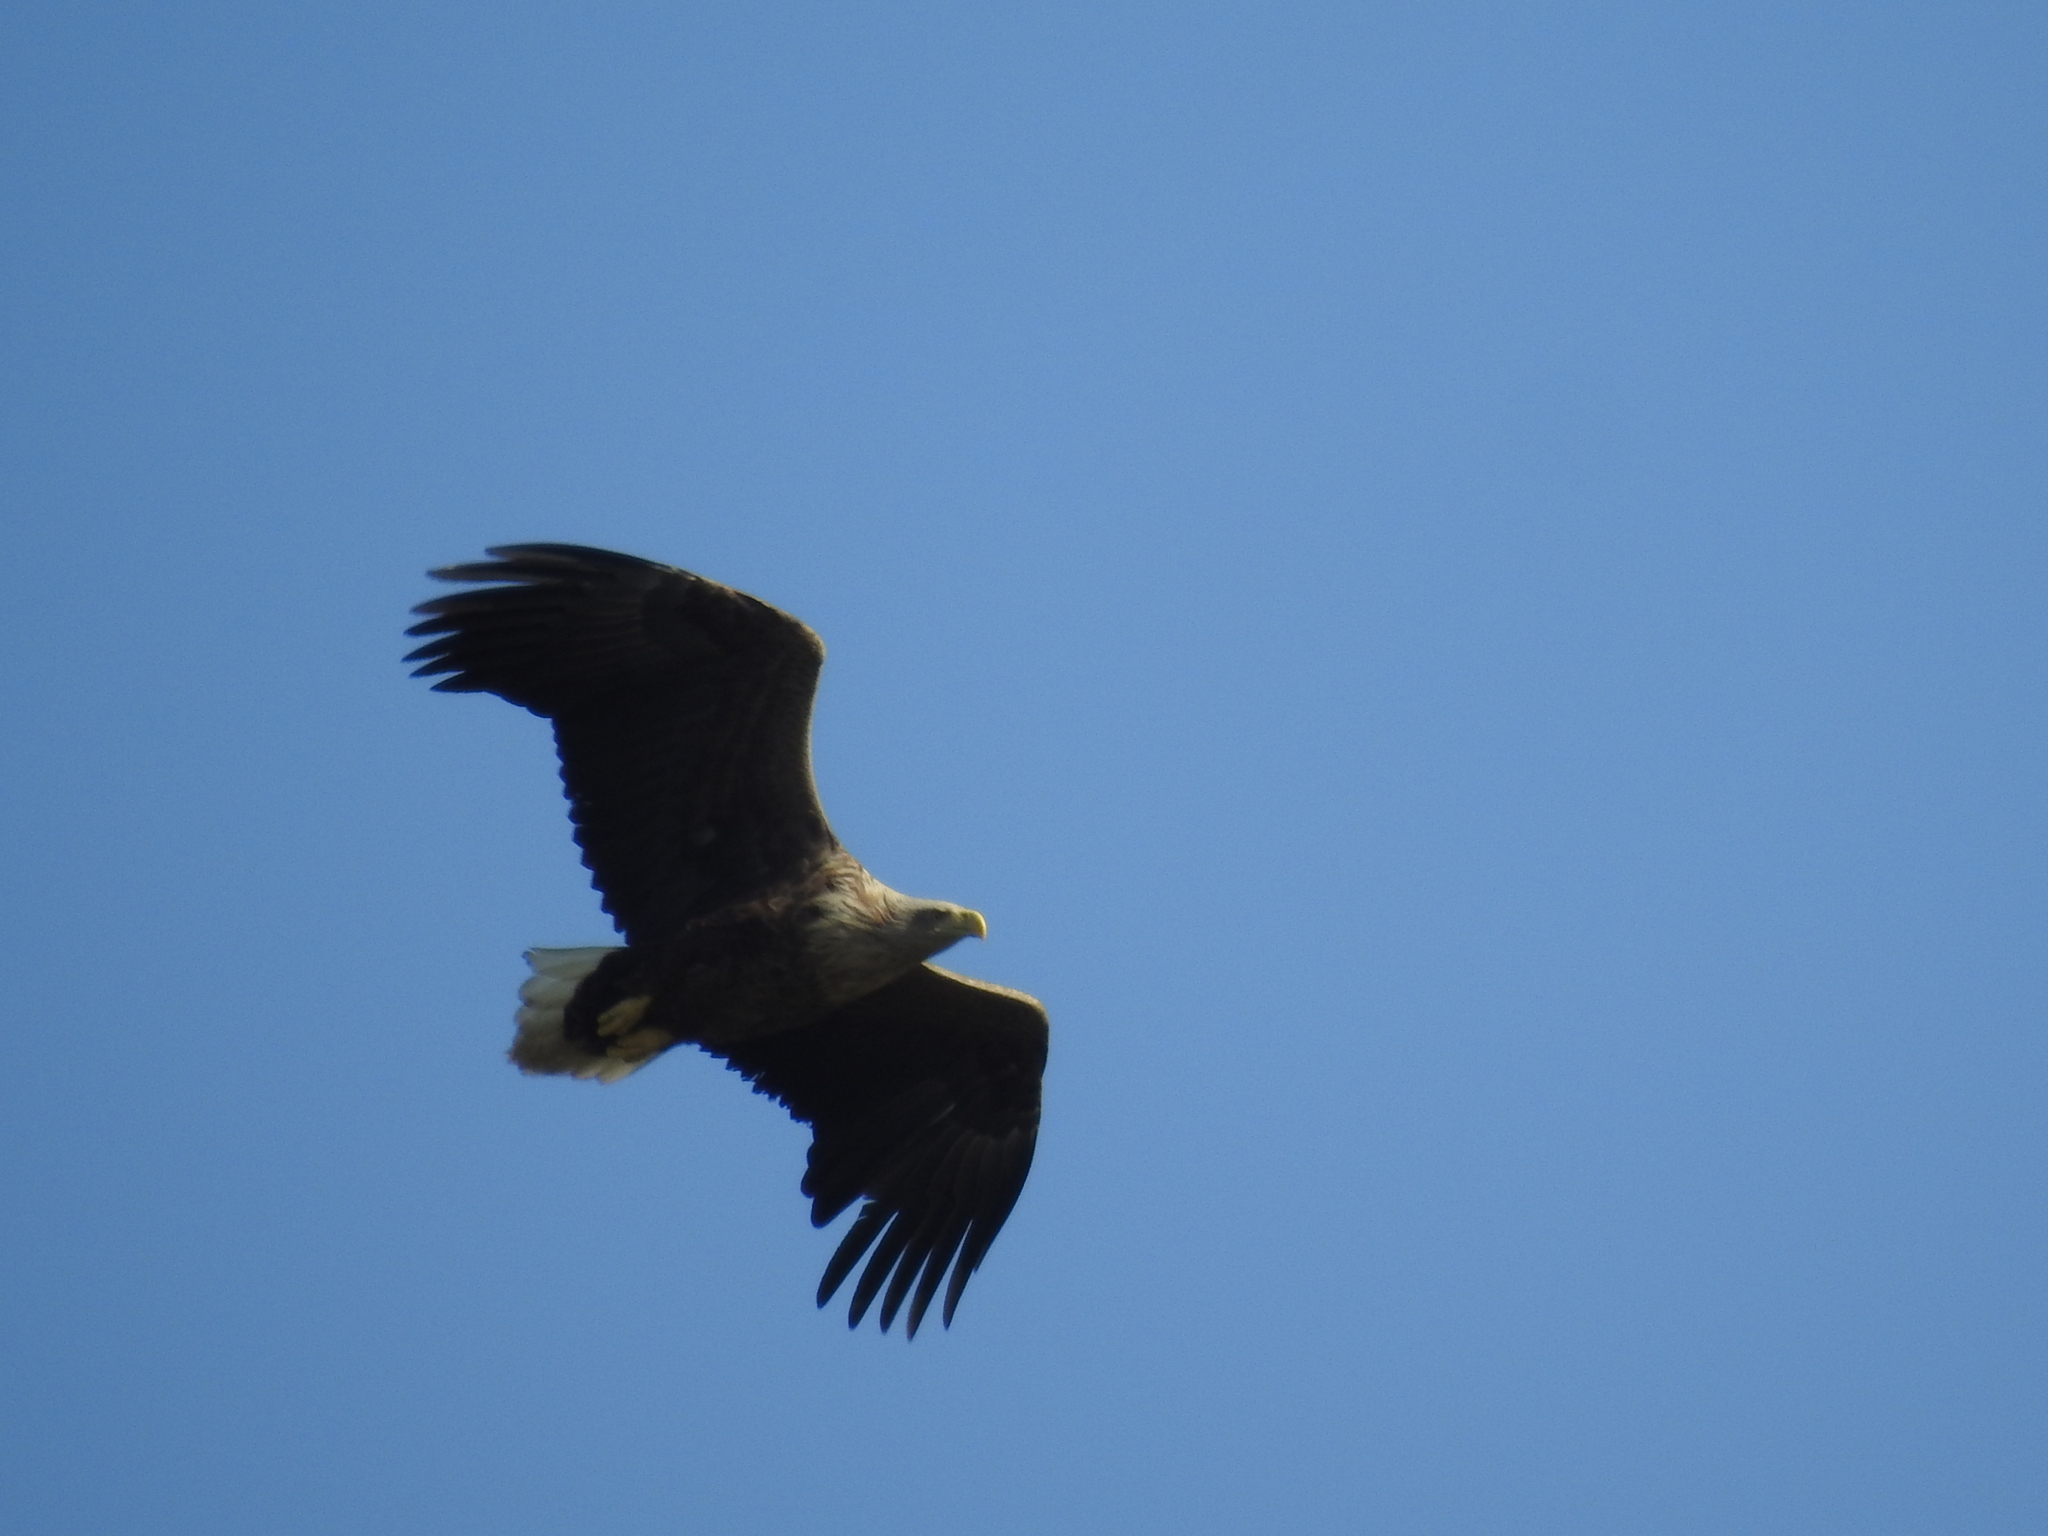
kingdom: Animalia
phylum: Chordata
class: Aves
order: Accipitriformes
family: Accipitridae
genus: Haliaeetus
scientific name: Haliaeetus albicilla
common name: White-tailed eagle
